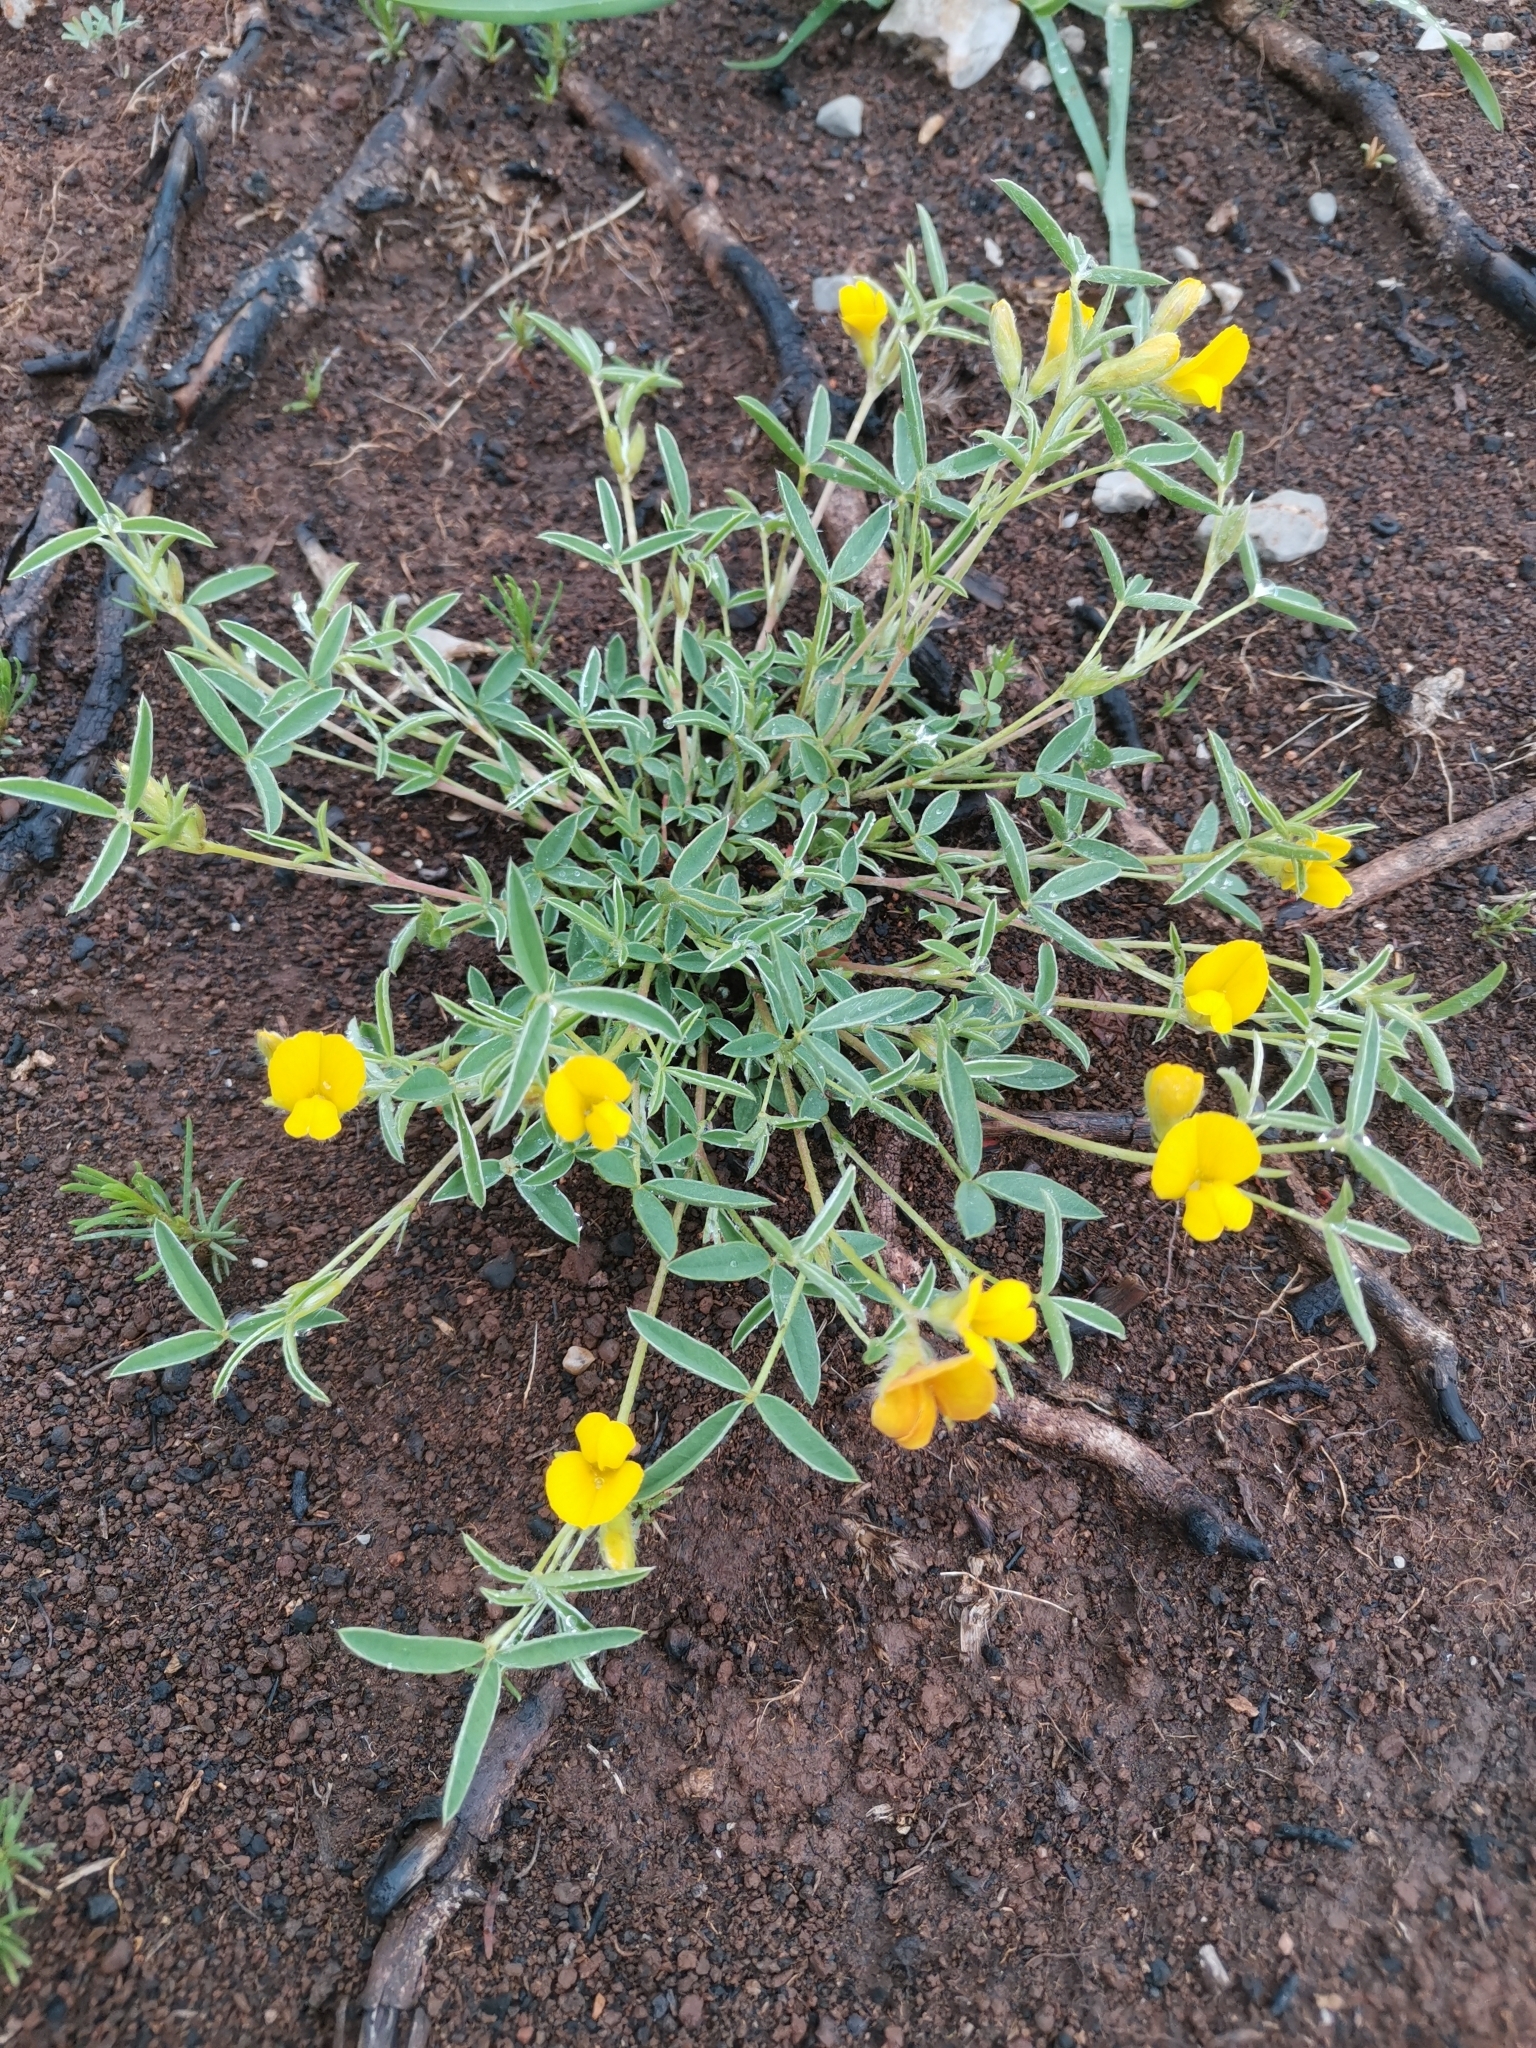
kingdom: Plantae
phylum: Tracheophyta
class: Magnoliopsida
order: Fabales
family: Fabaceae
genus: Argyrolobium
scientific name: Argyrolobium zanonii
